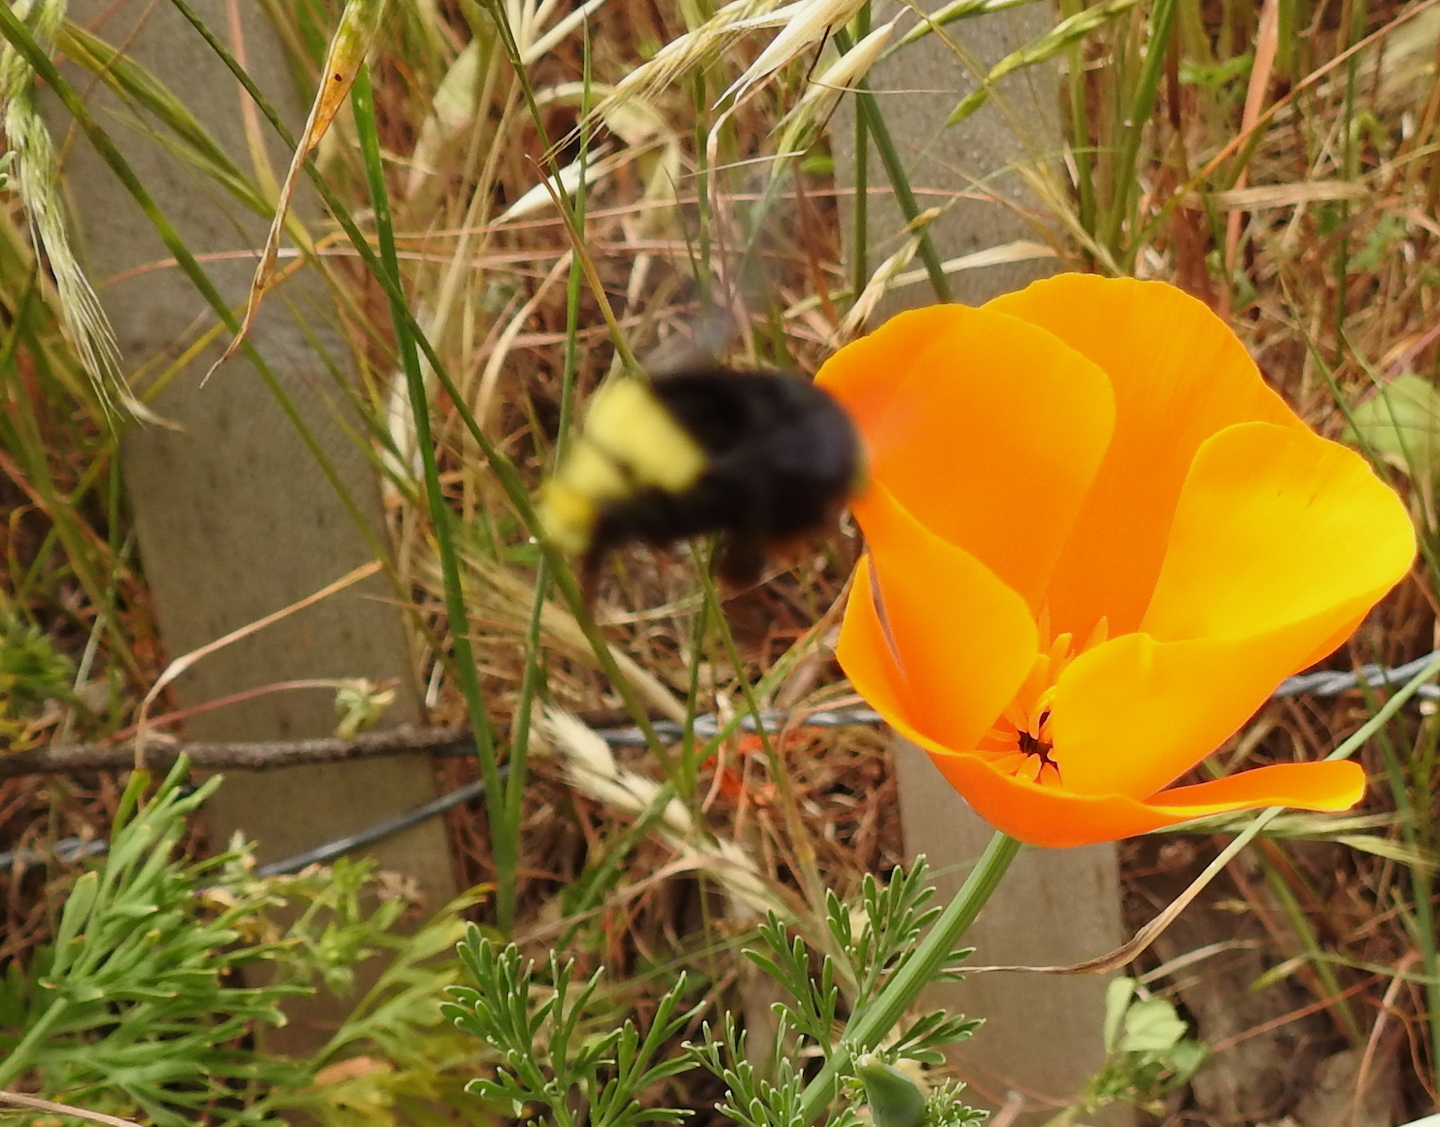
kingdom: Animalia
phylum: Arthropoda
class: Insecta
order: Hymenoptera
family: Apidae
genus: Pyrobombus
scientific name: Pyrobombus
